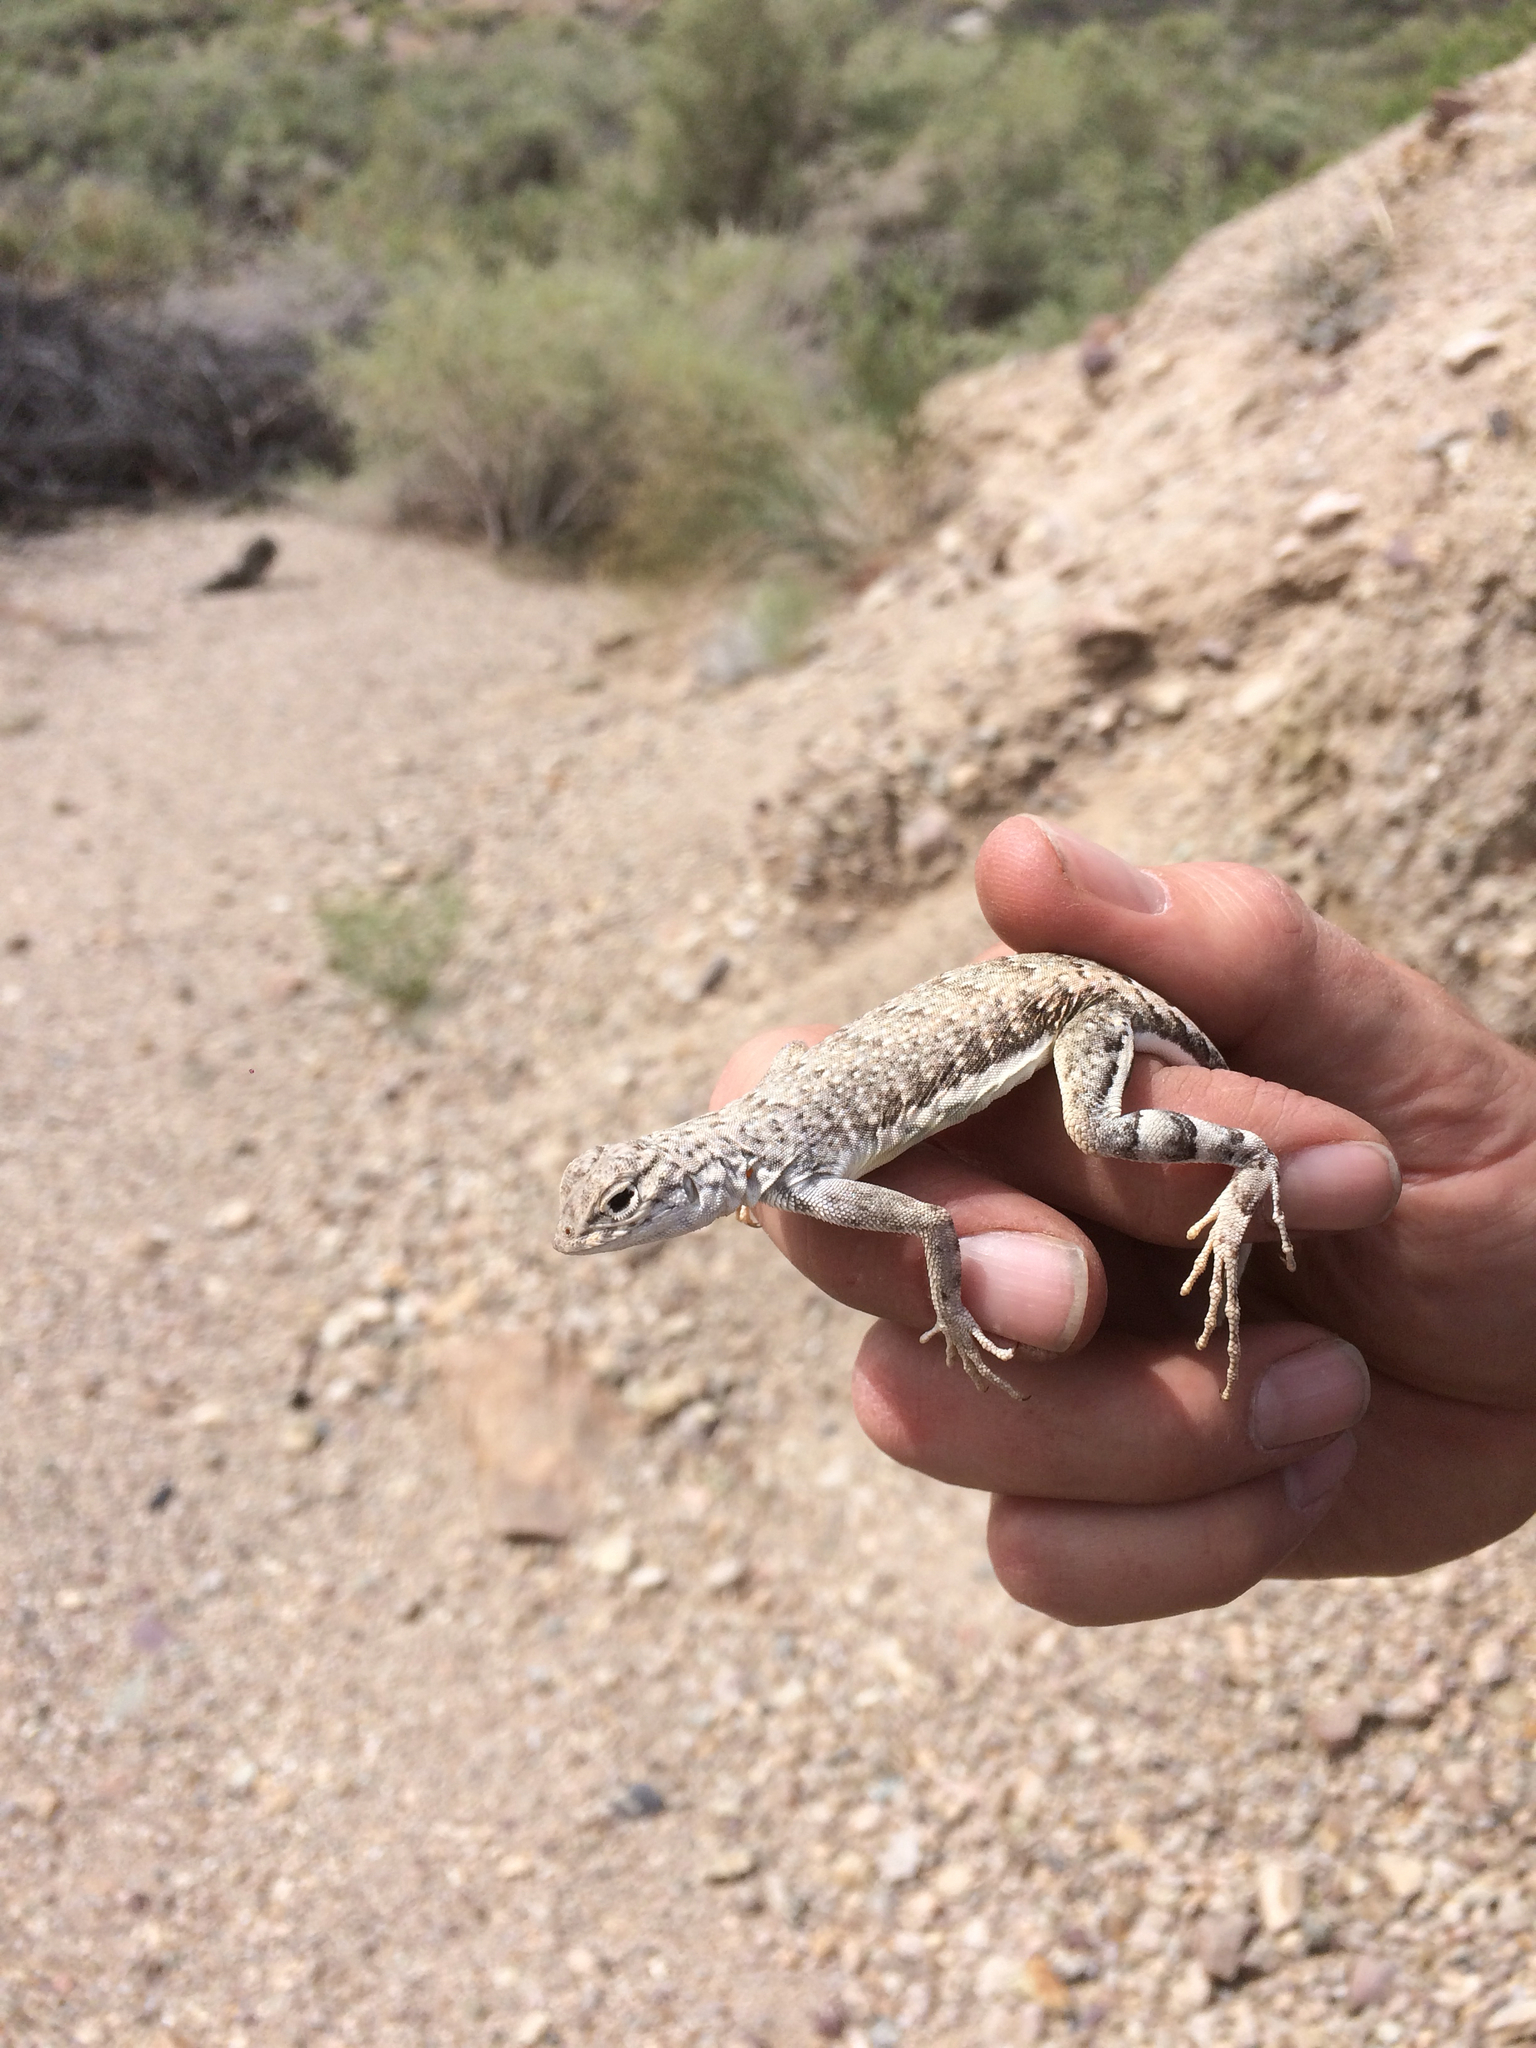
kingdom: Animalia
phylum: Chordata
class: Squamata
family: Phrynosomatidae
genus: Callisaurus
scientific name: Callisaurus draconoides
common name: Zebra-tailed lizard
